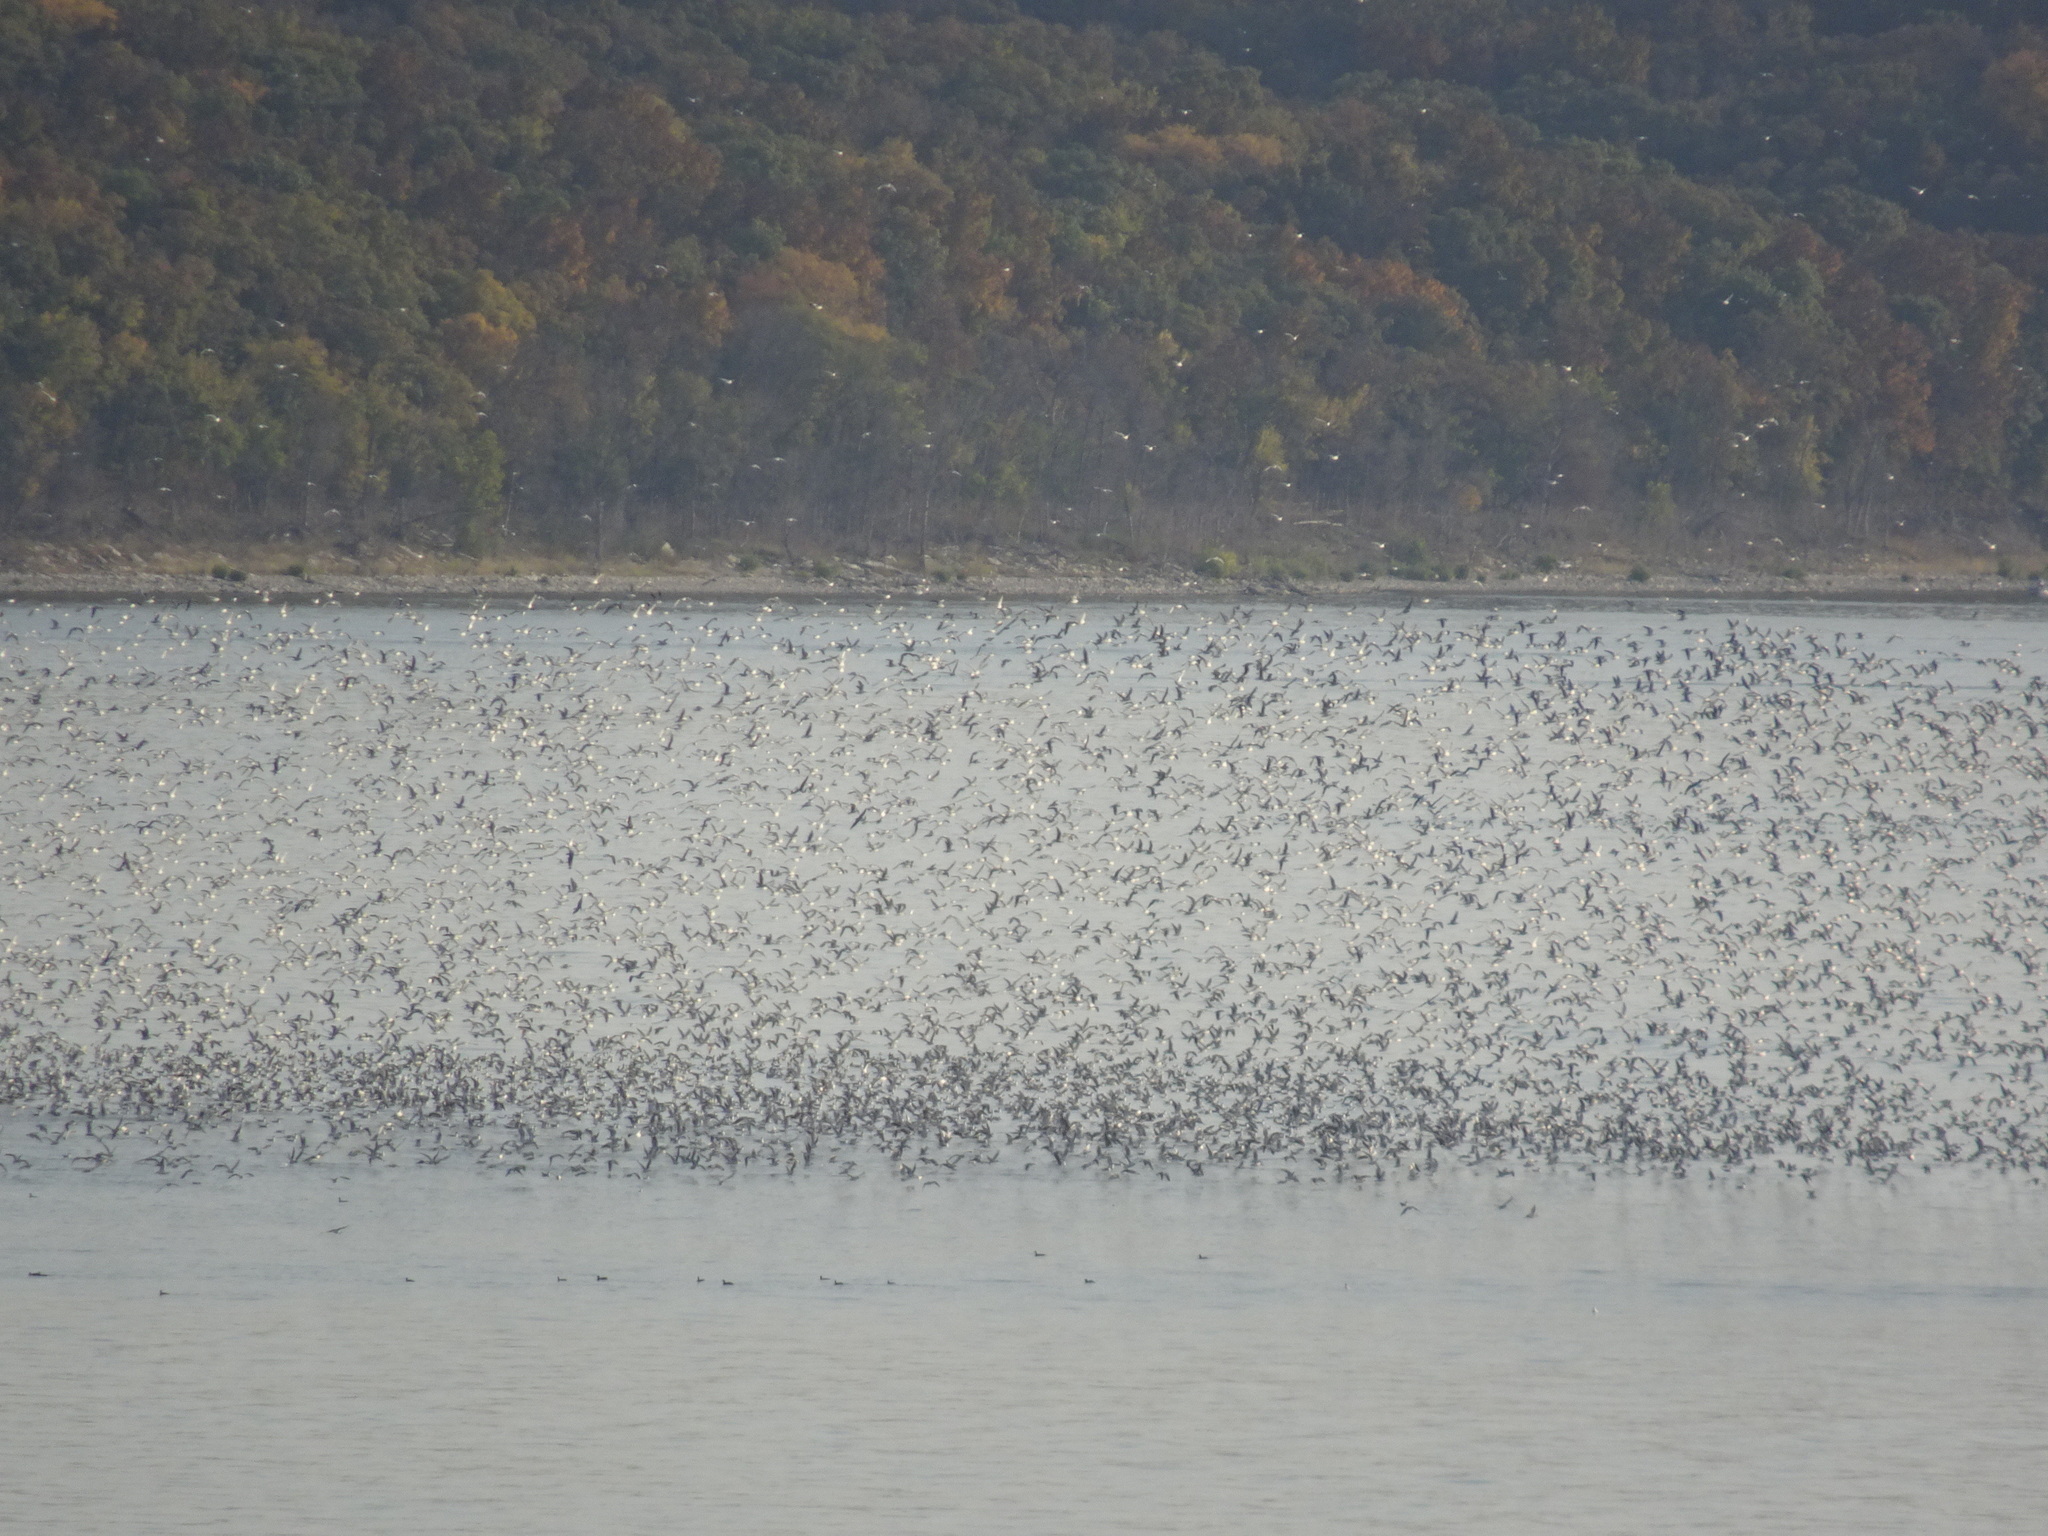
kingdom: Animalia
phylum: Chordata
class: Aves
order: Charadriiformes
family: Laridae
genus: Leucophaeus
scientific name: Leucophaeus pipixcan
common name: Franklin's gull
